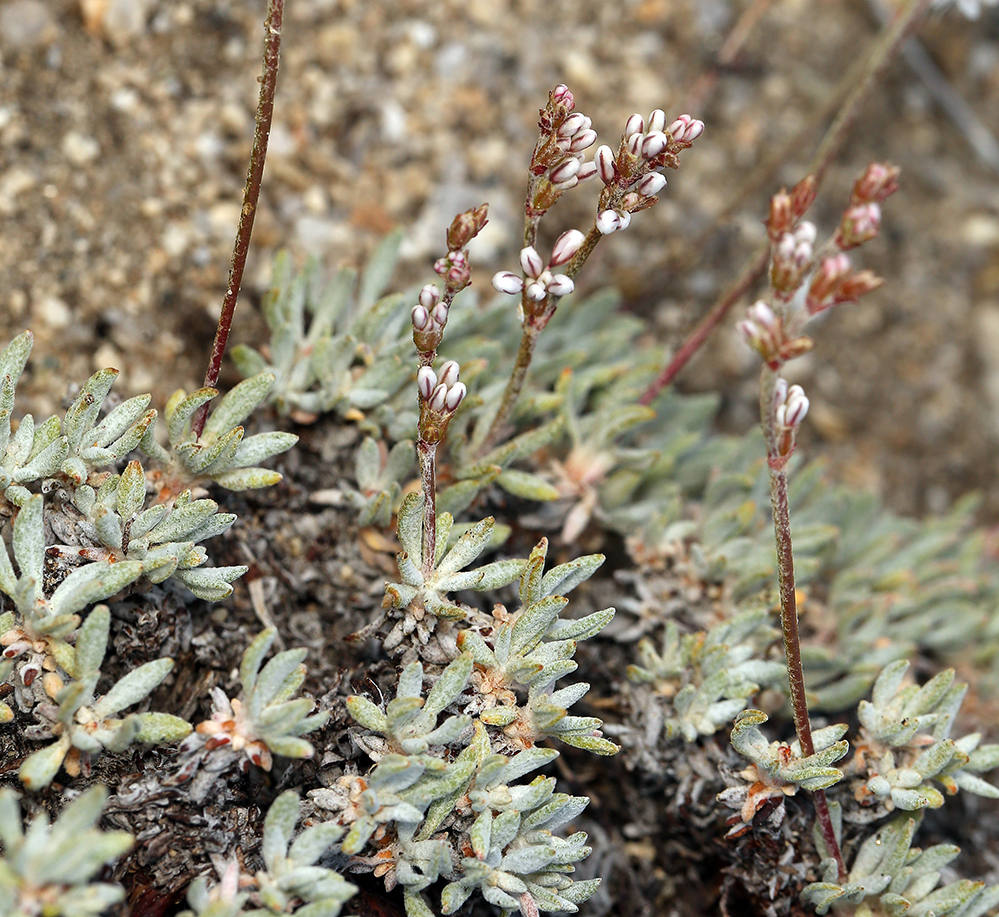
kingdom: Plantae
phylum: Tracheophyta
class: Magnoliopsida
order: Caryophyllales
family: Polygonaceae
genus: Eriogonum
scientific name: Eriogonum wrightii
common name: Bastard-sage
